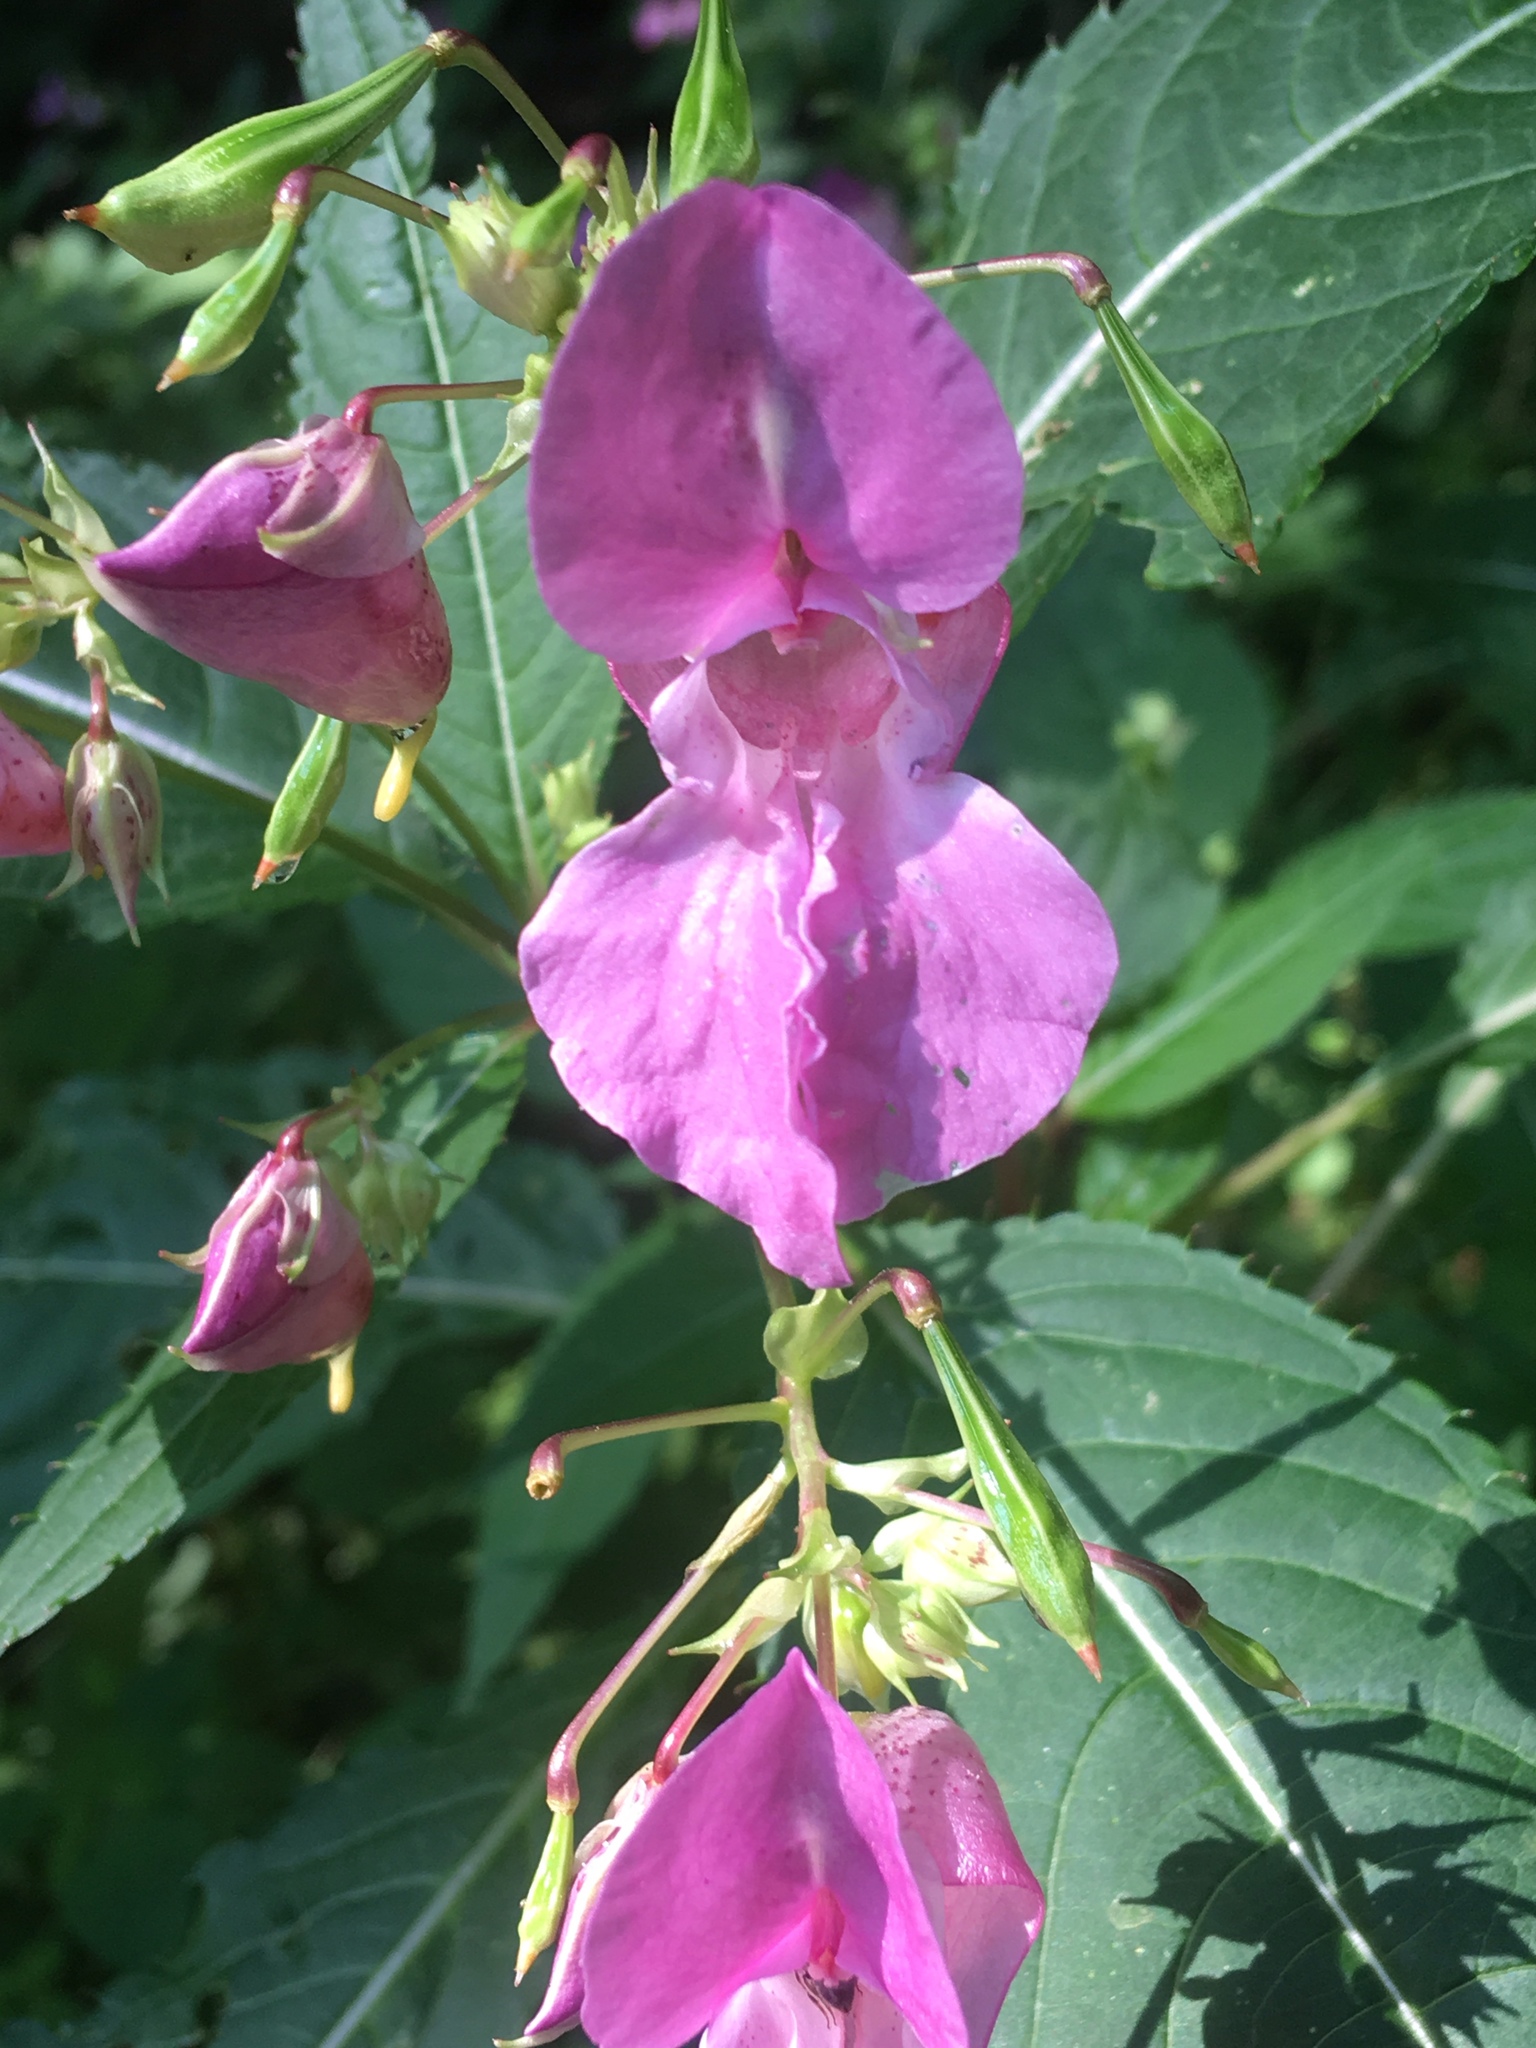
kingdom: Plantae
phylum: Tracheophyta
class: Magnoliopsida
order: Ericales
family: Balsaminaceae
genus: Impatiens
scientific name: Impatiens glandulifera
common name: Himalayan balsam
